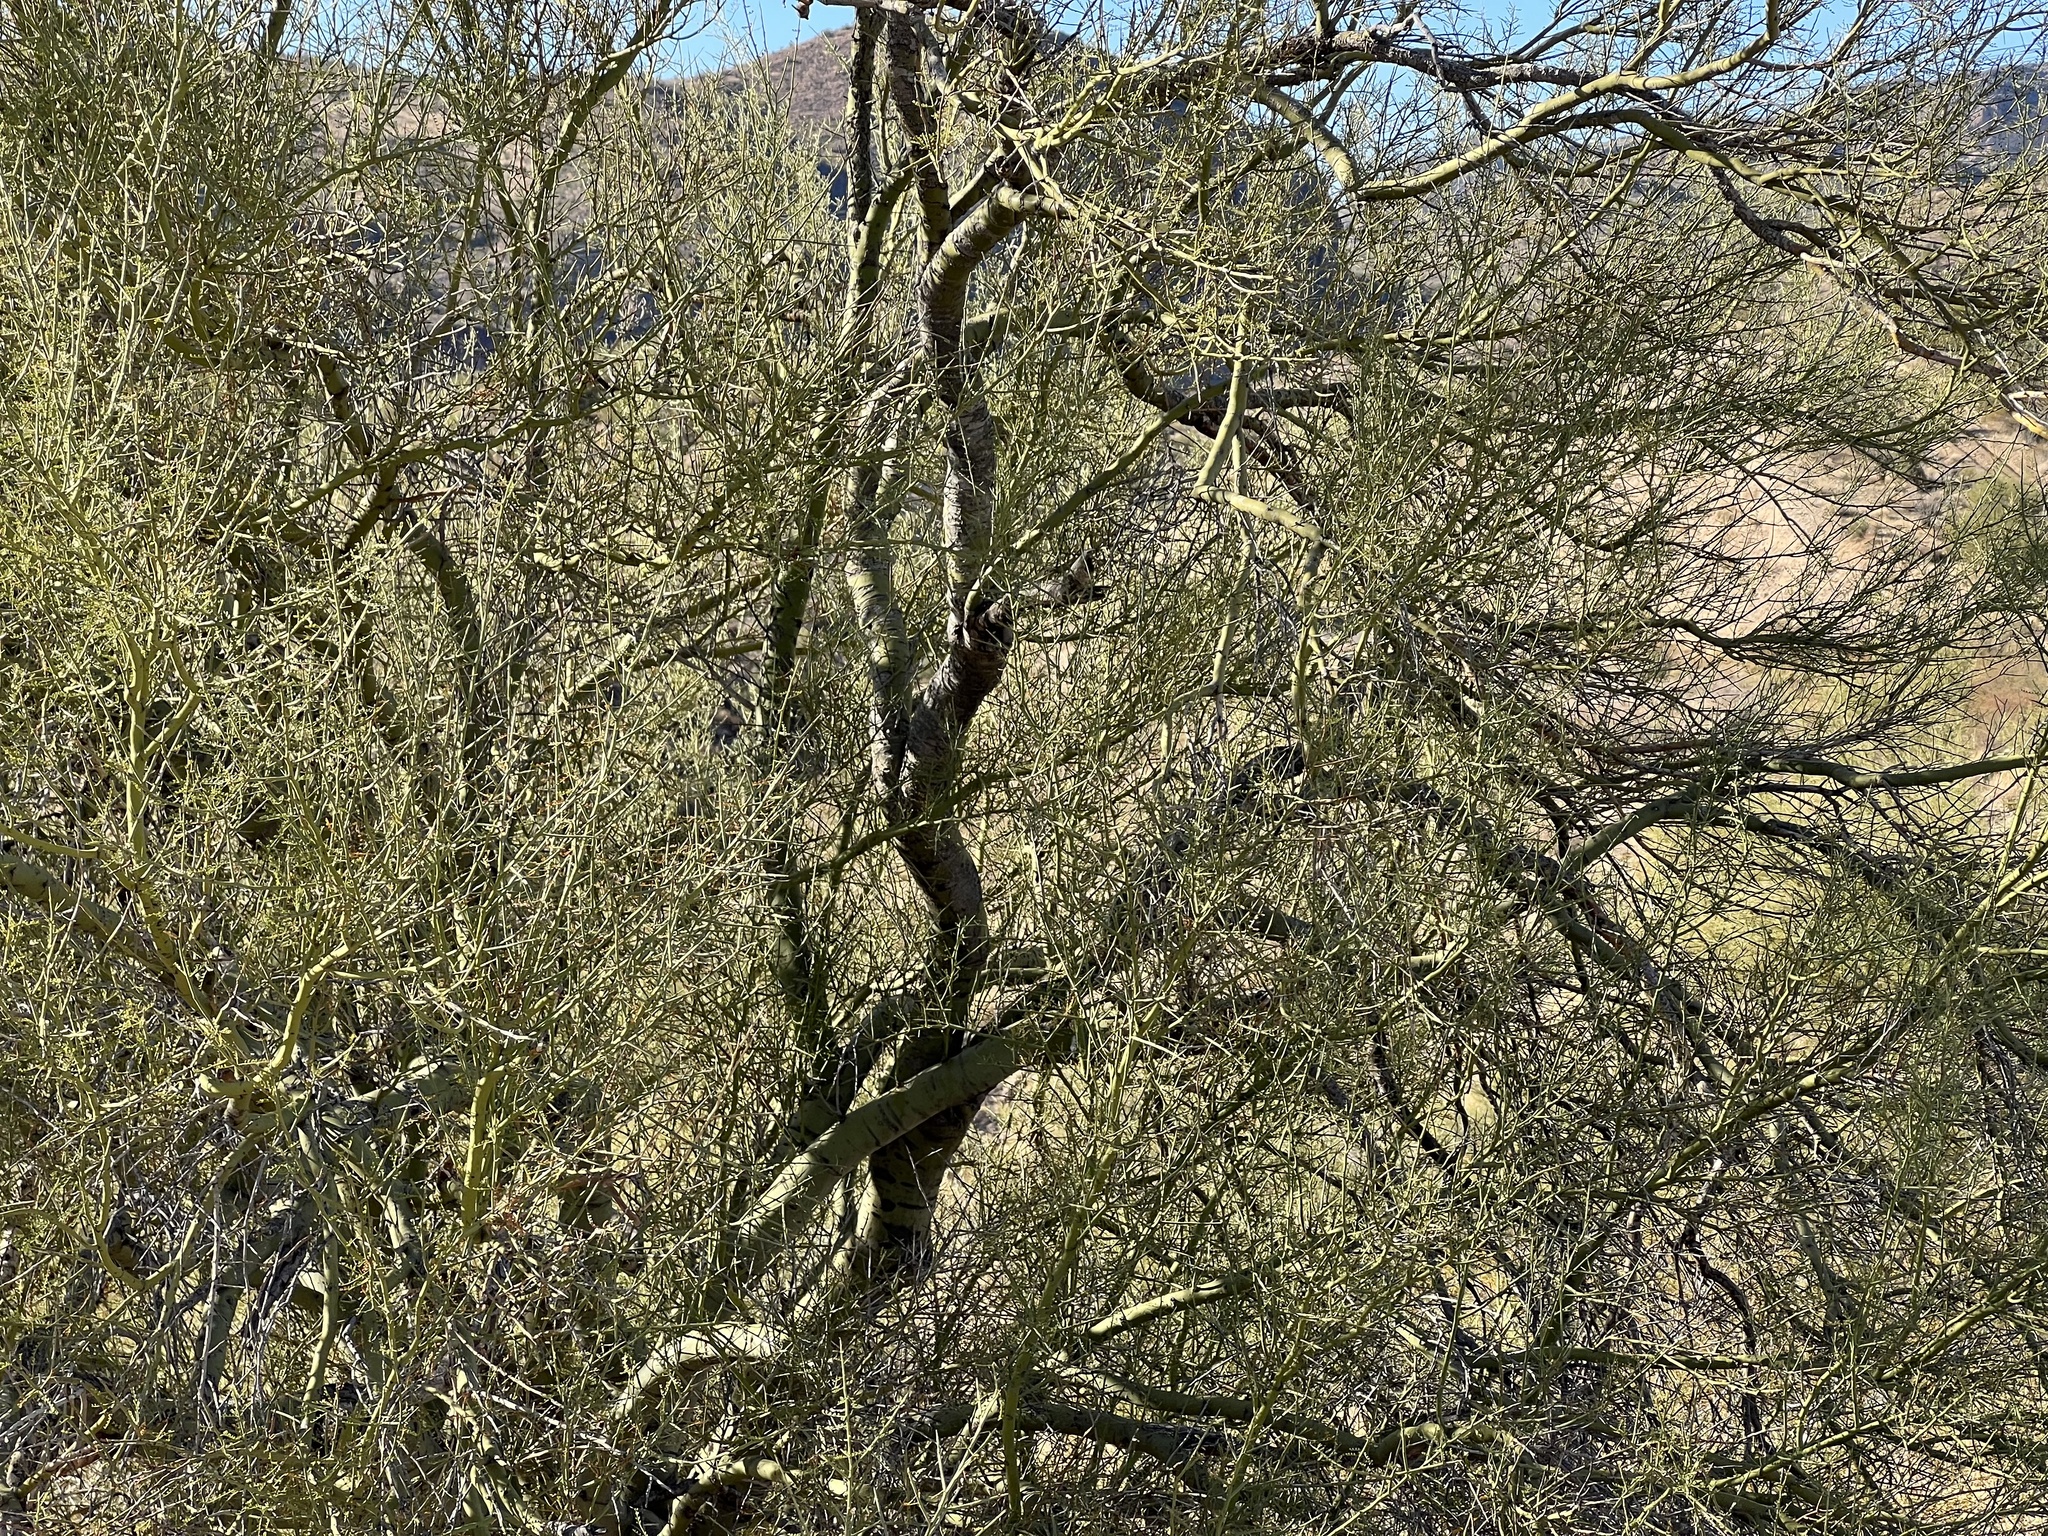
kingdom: Plantae
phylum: Tracheophyta
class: Magnoliopsida
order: Fabales
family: Fabaceae
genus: Parkinsonia
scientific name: Parkinsonia microphylla
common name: Yellow paloverde
